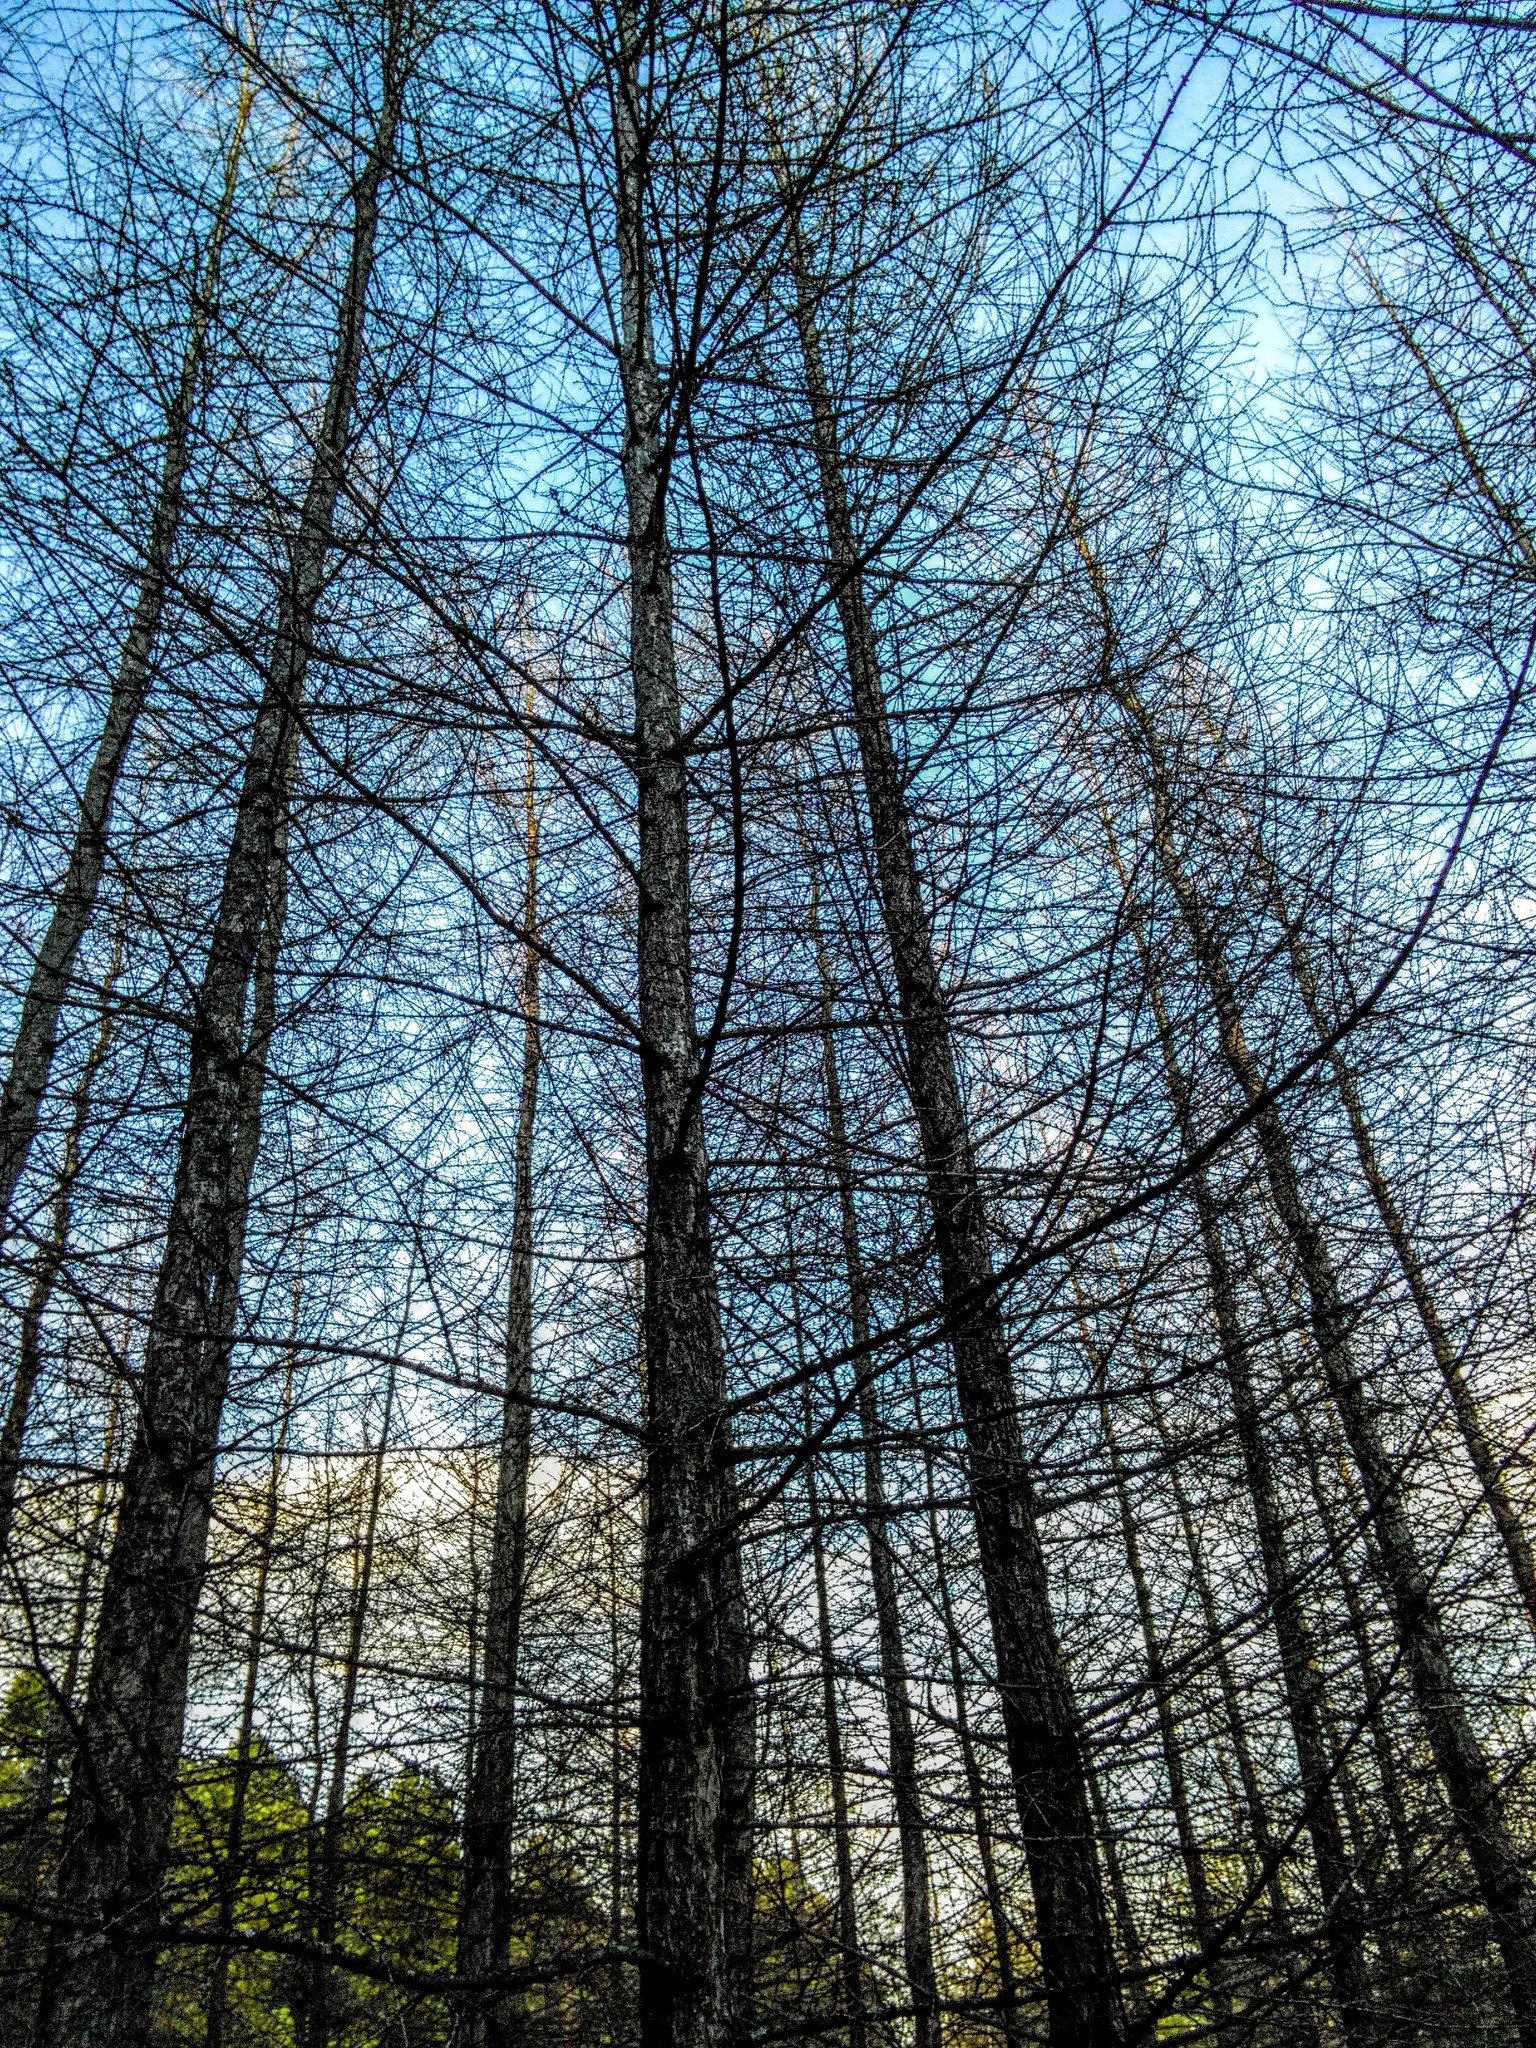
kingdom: Plantae
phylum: Tracheophyta
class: Pinopsida
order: Pinales
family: Pinaceae
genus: Larix
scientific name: Larix sibirica
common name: Siberian larch
